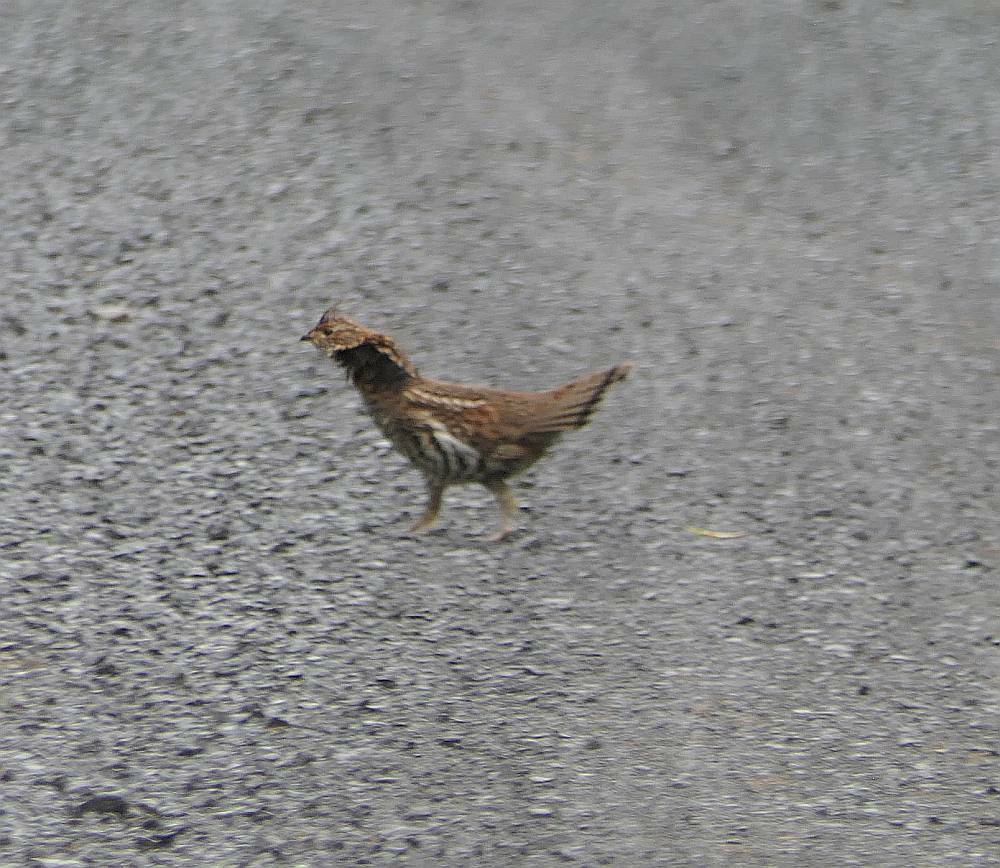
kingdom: Animalia
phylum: Chordata
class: Aves
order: Galliformes
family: Phasianidae
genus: Bonasa
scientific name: Bonasa umbellus
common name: Ruffed grouse
